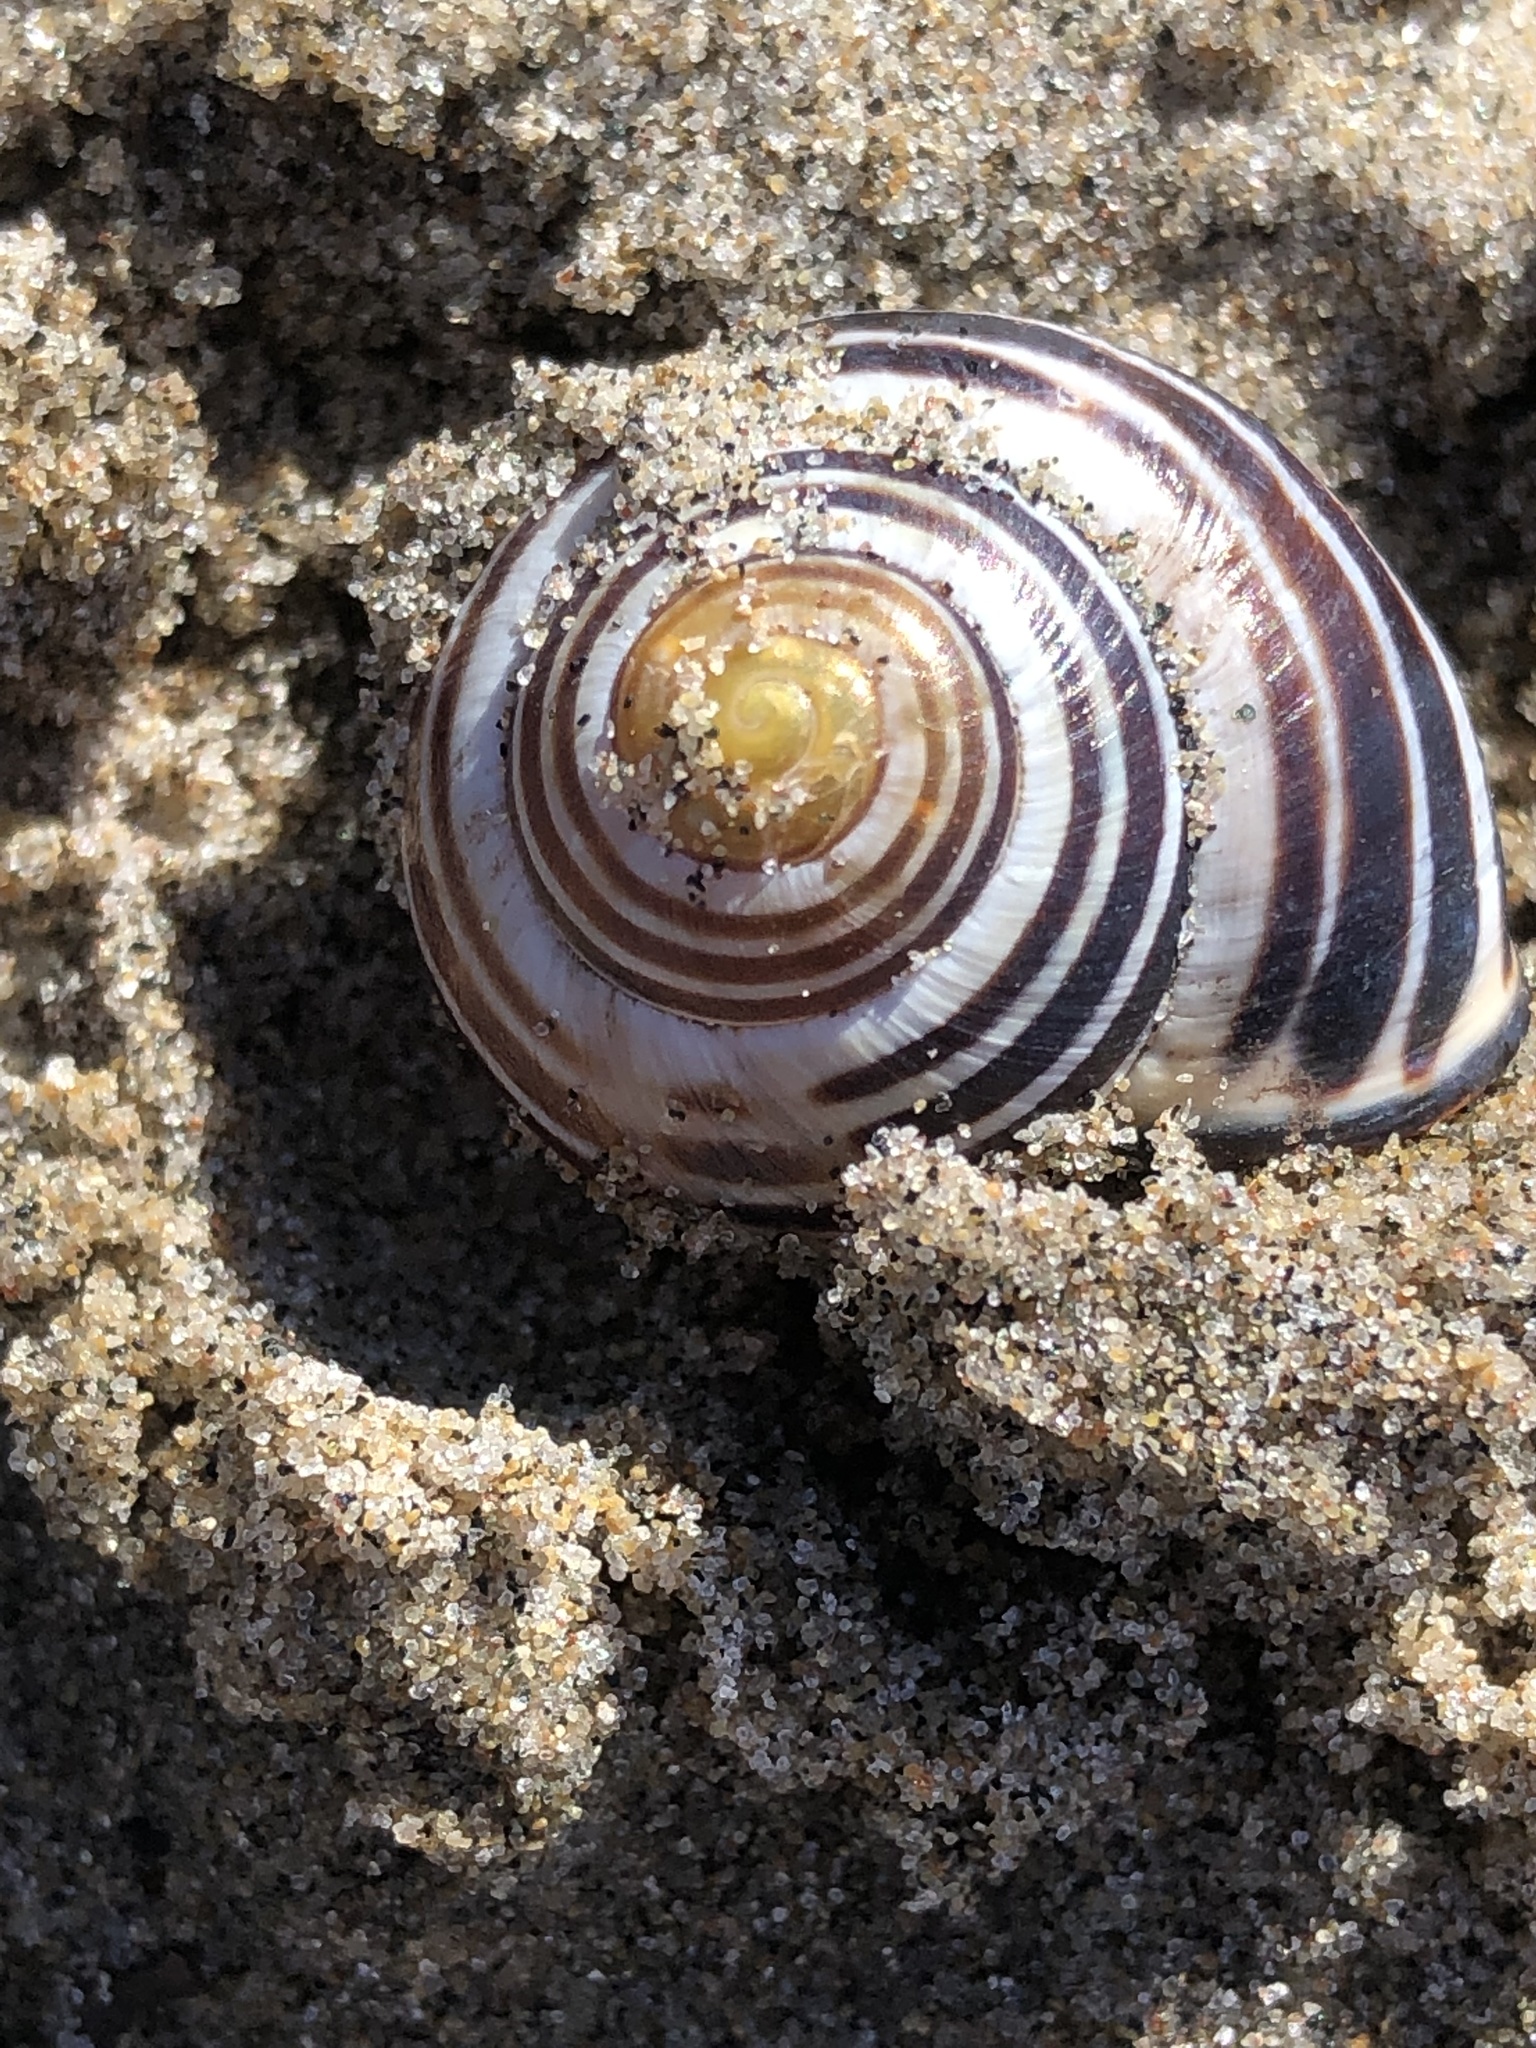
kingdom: Animalia
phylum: Mollusca
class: Gastropoda
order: Stylommatophora
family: Helicidae
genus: Cepaea
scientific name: Cepaea nemoralis
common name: Grovesnail
